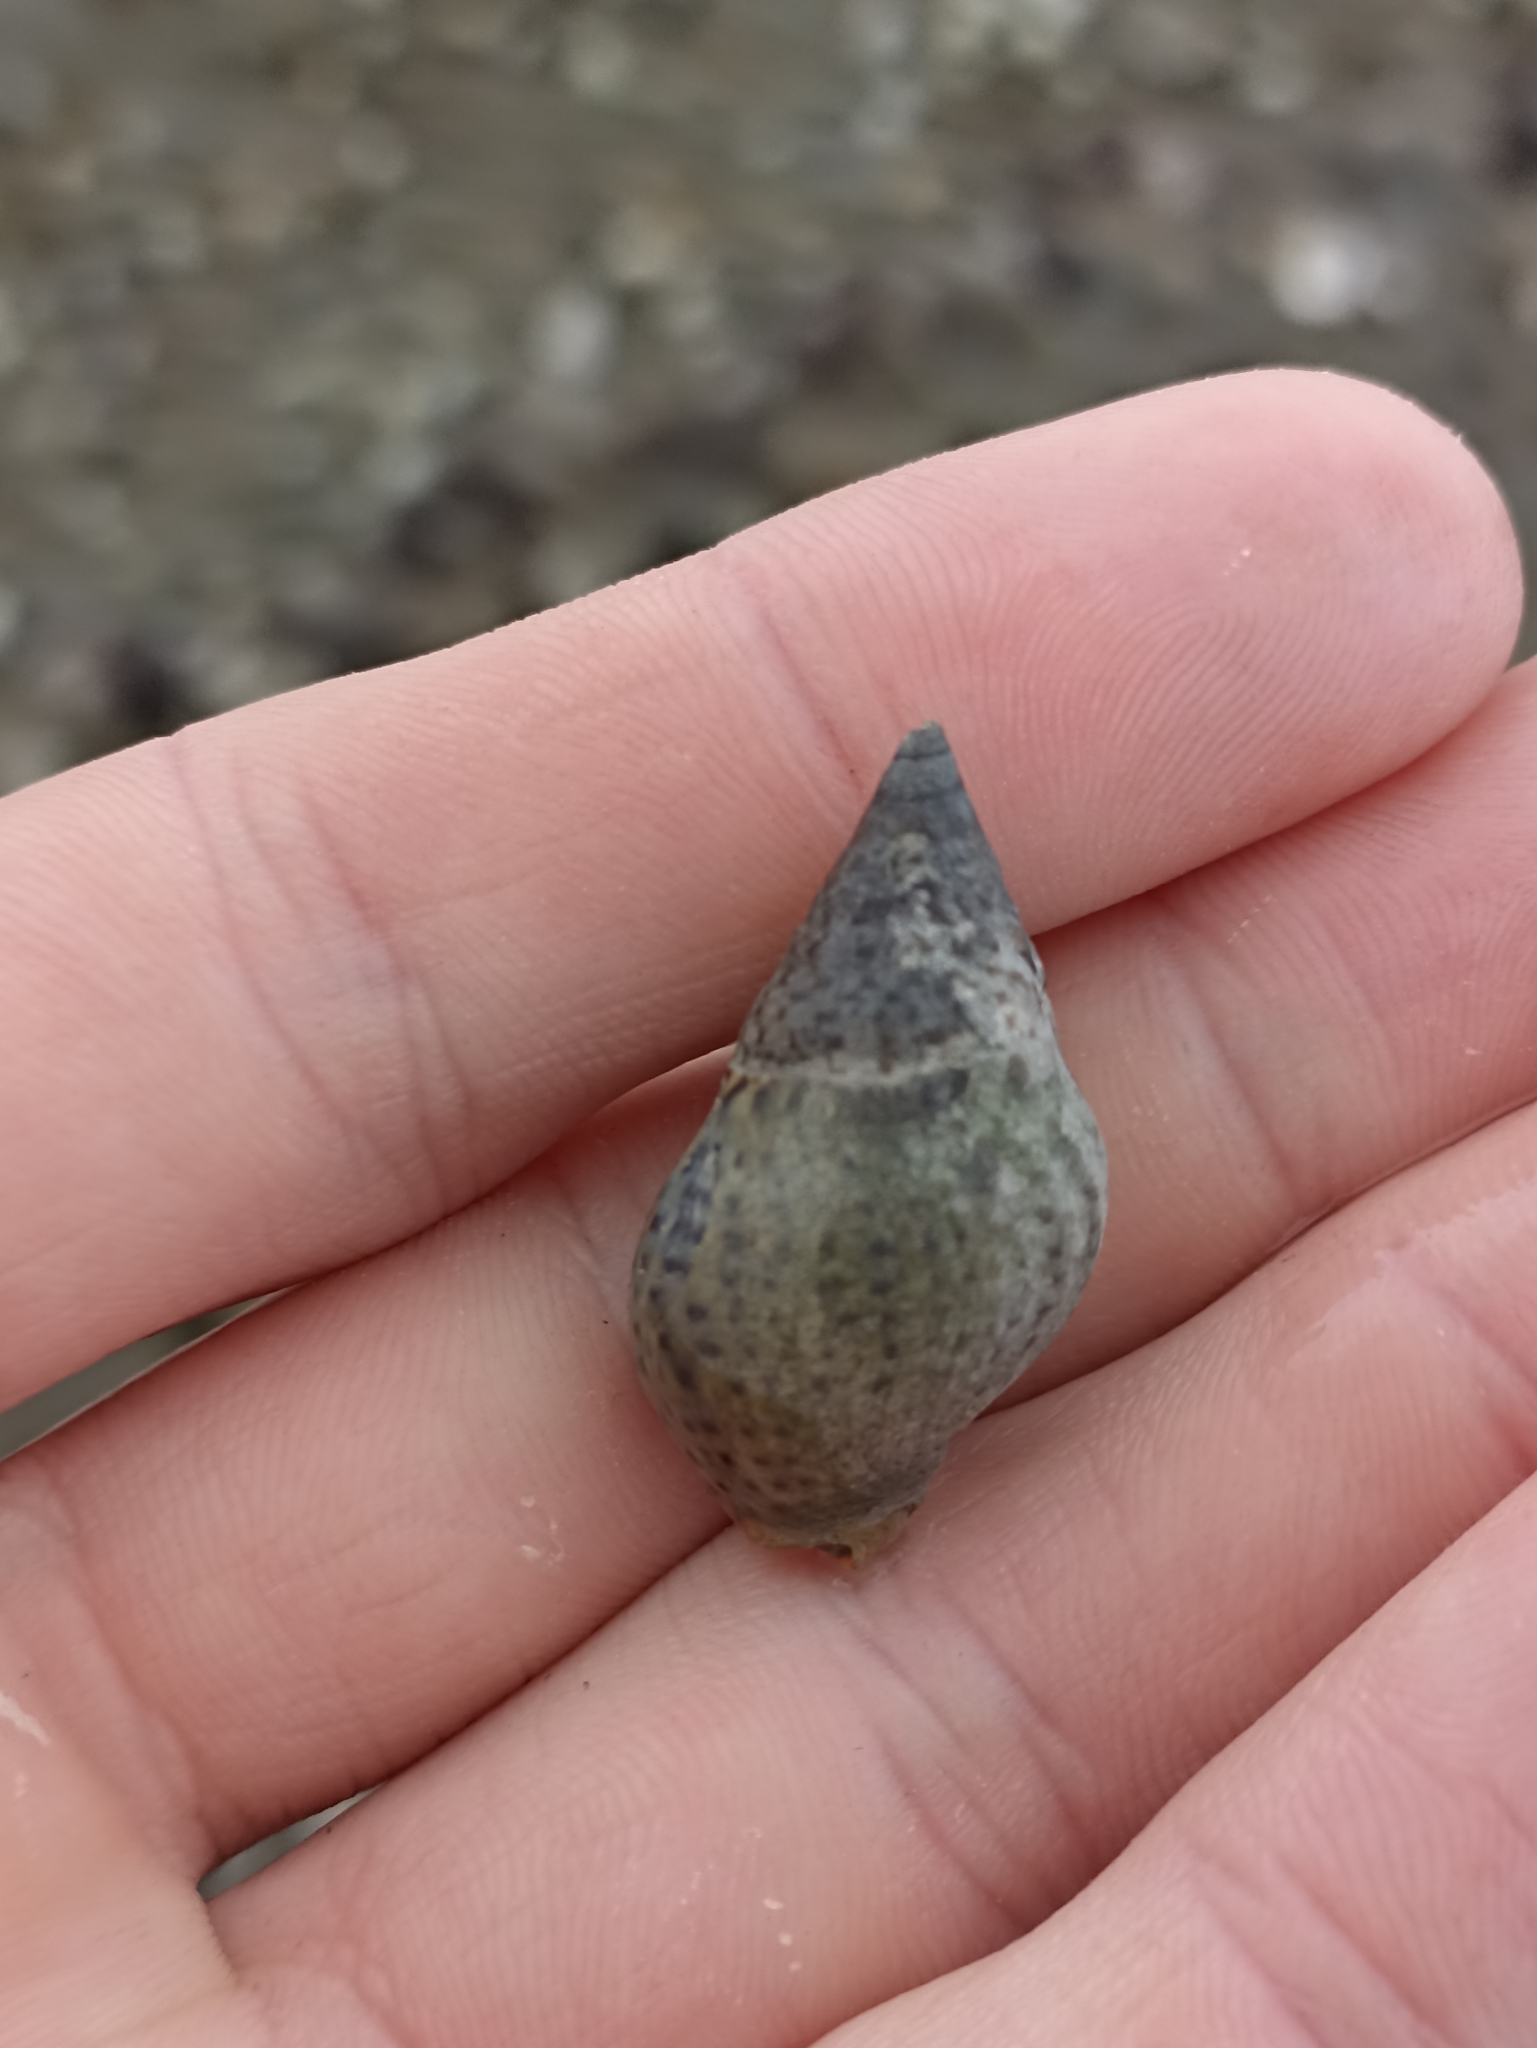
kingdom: Animalia
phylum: Mollusca
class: Gastropoda
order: Neogastropoda
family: Cominellidae
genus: Cominella
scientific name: Cominella maculosa
